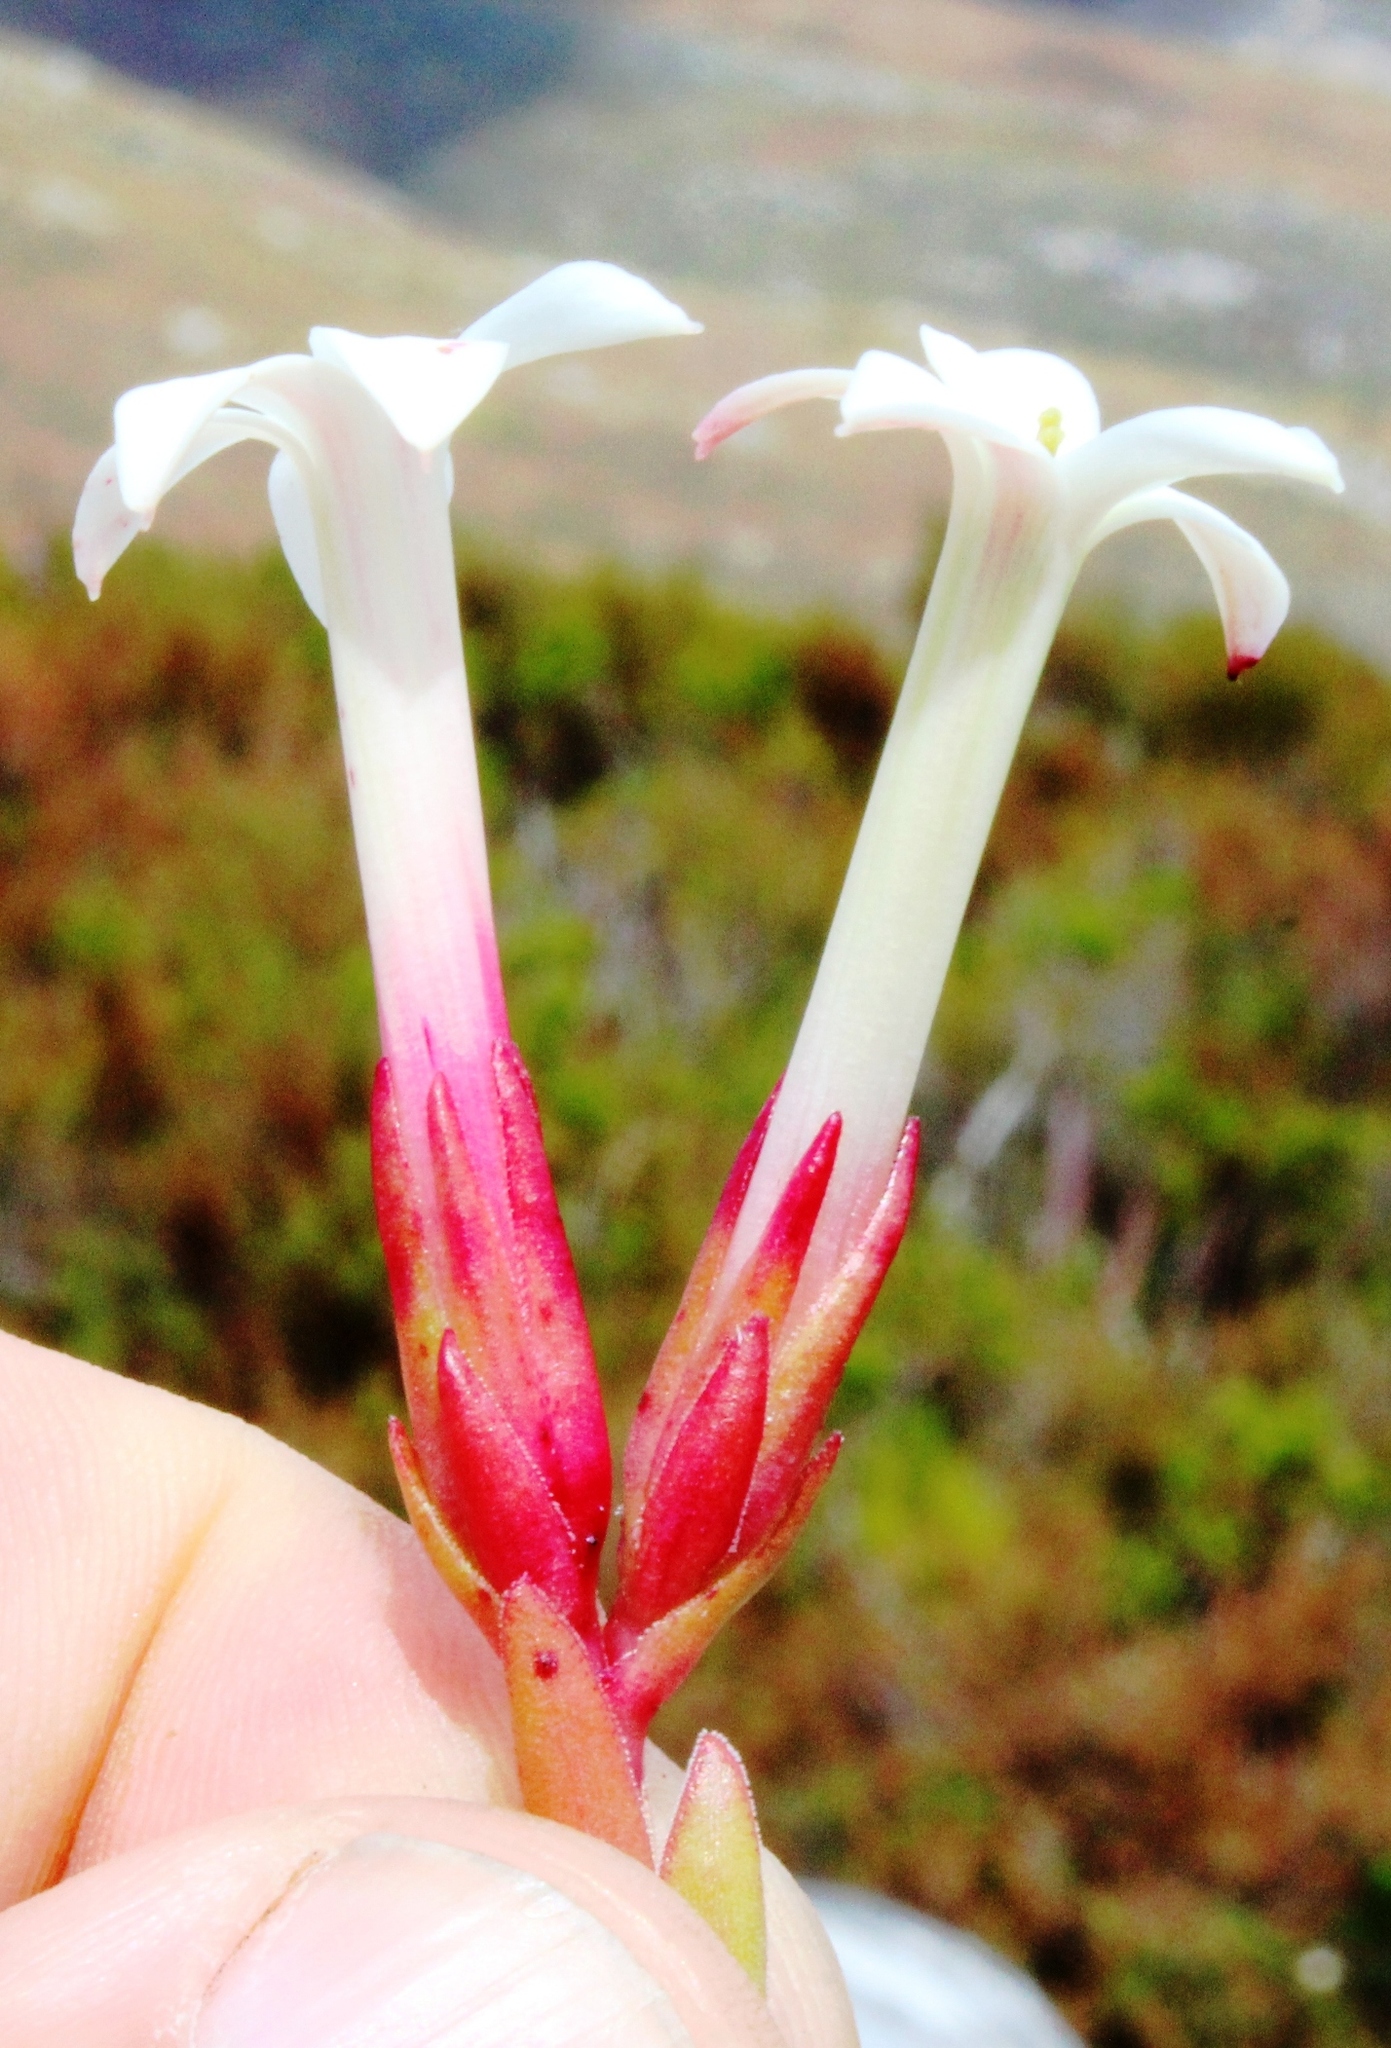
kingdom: Plantae
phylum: Tracheophyta
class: Magnoliopsida
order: Saxifragales
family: Crassulaceae
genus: Crassula
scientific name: Crassula obtusa
